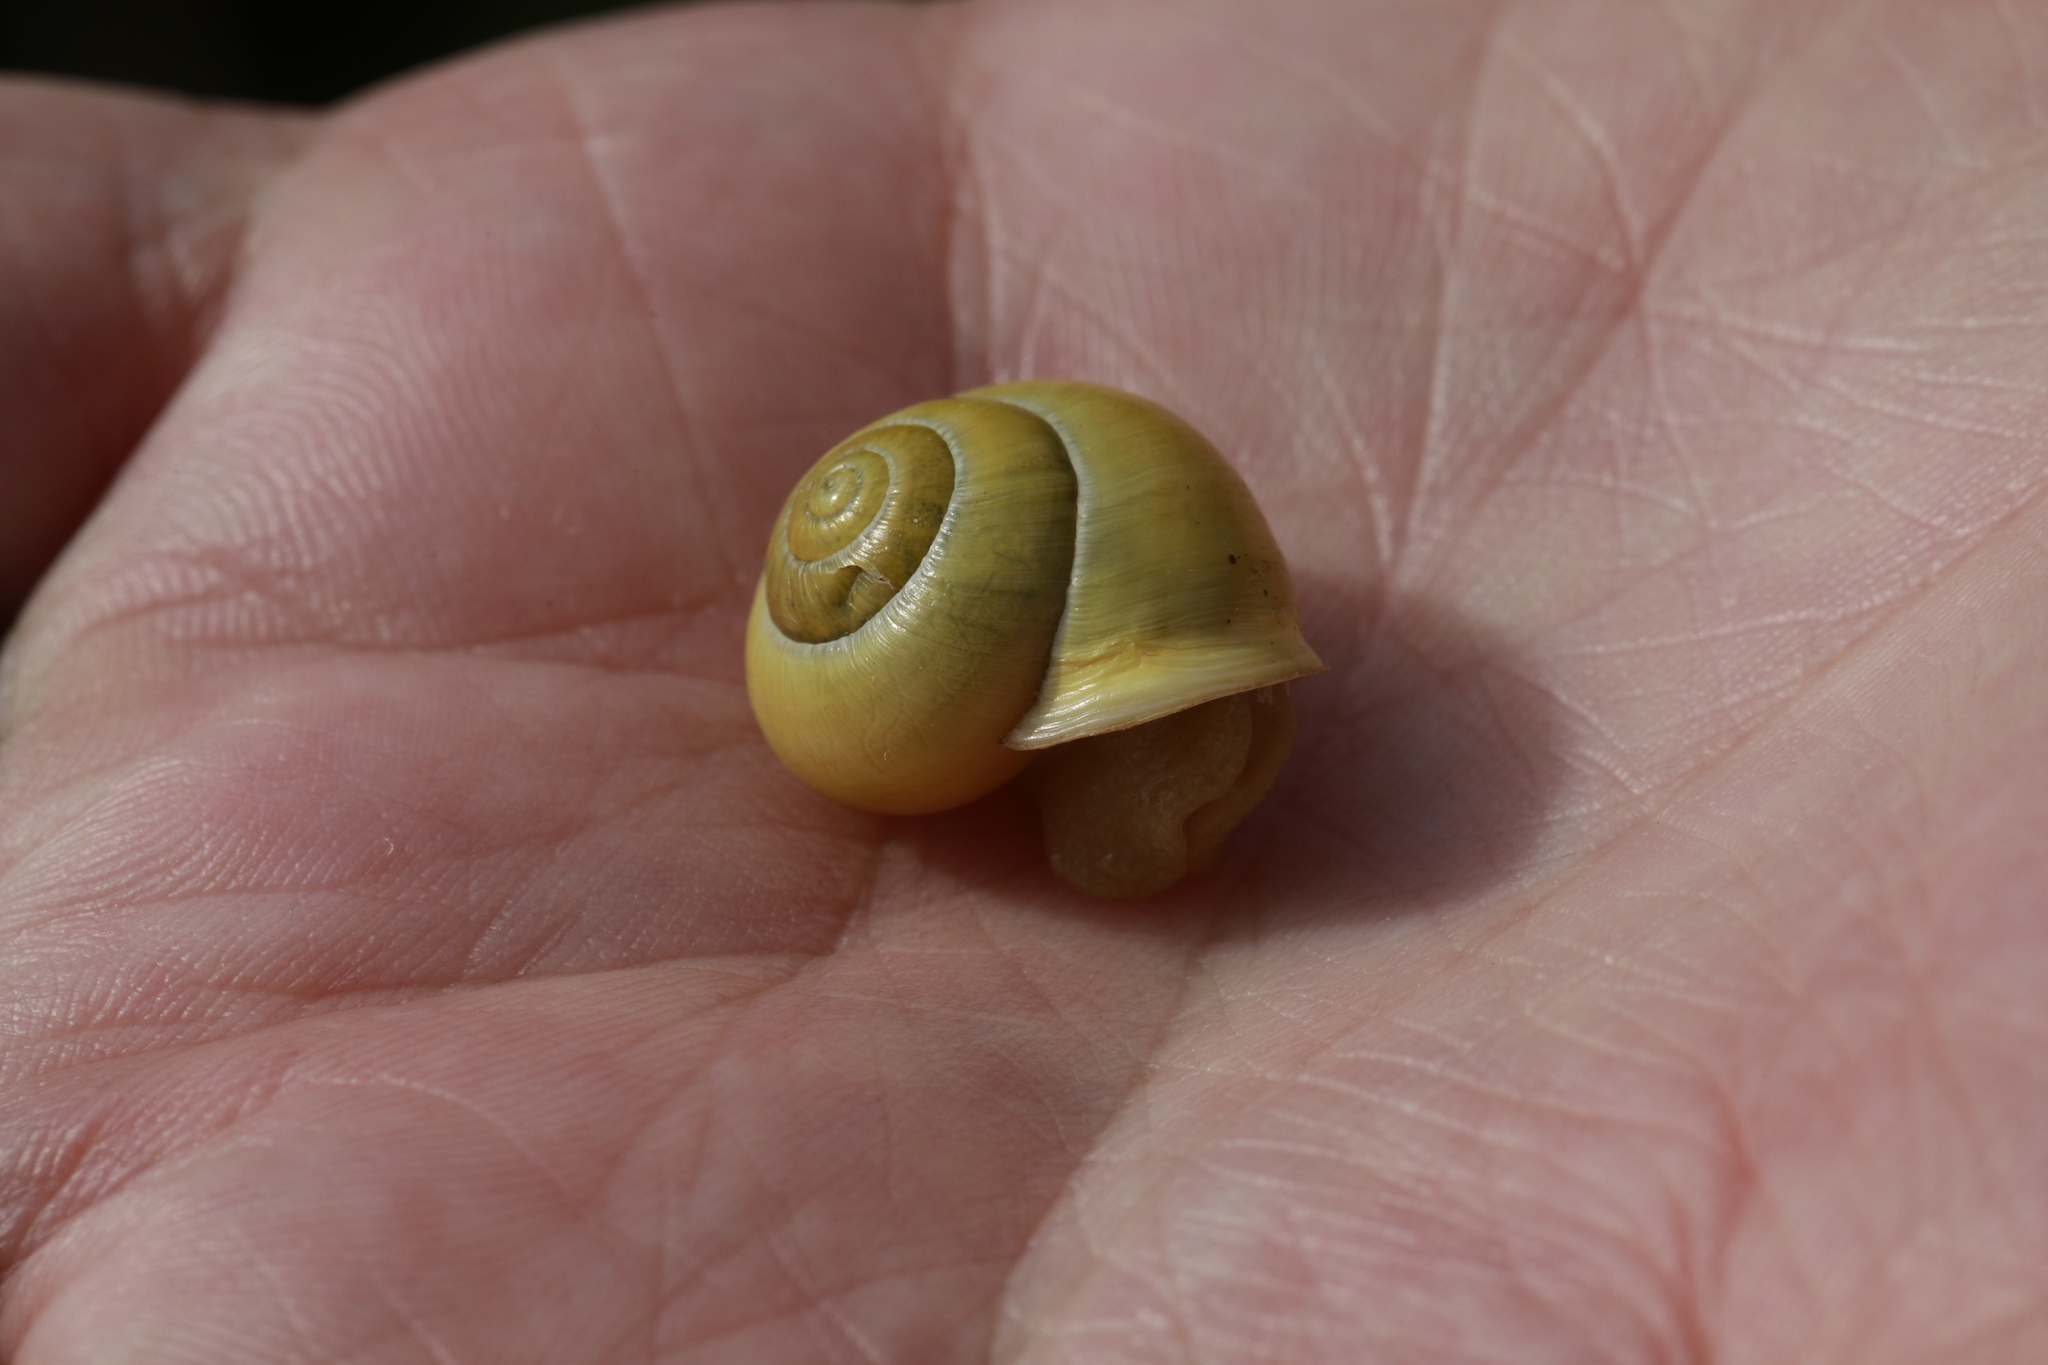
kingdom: Animalia
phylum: Mollusca
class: Gastropoda
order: Stylommatophora
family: Helicidae
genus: Cepaea
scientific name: Cepaea hortensis
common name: White-lip gardensnail
